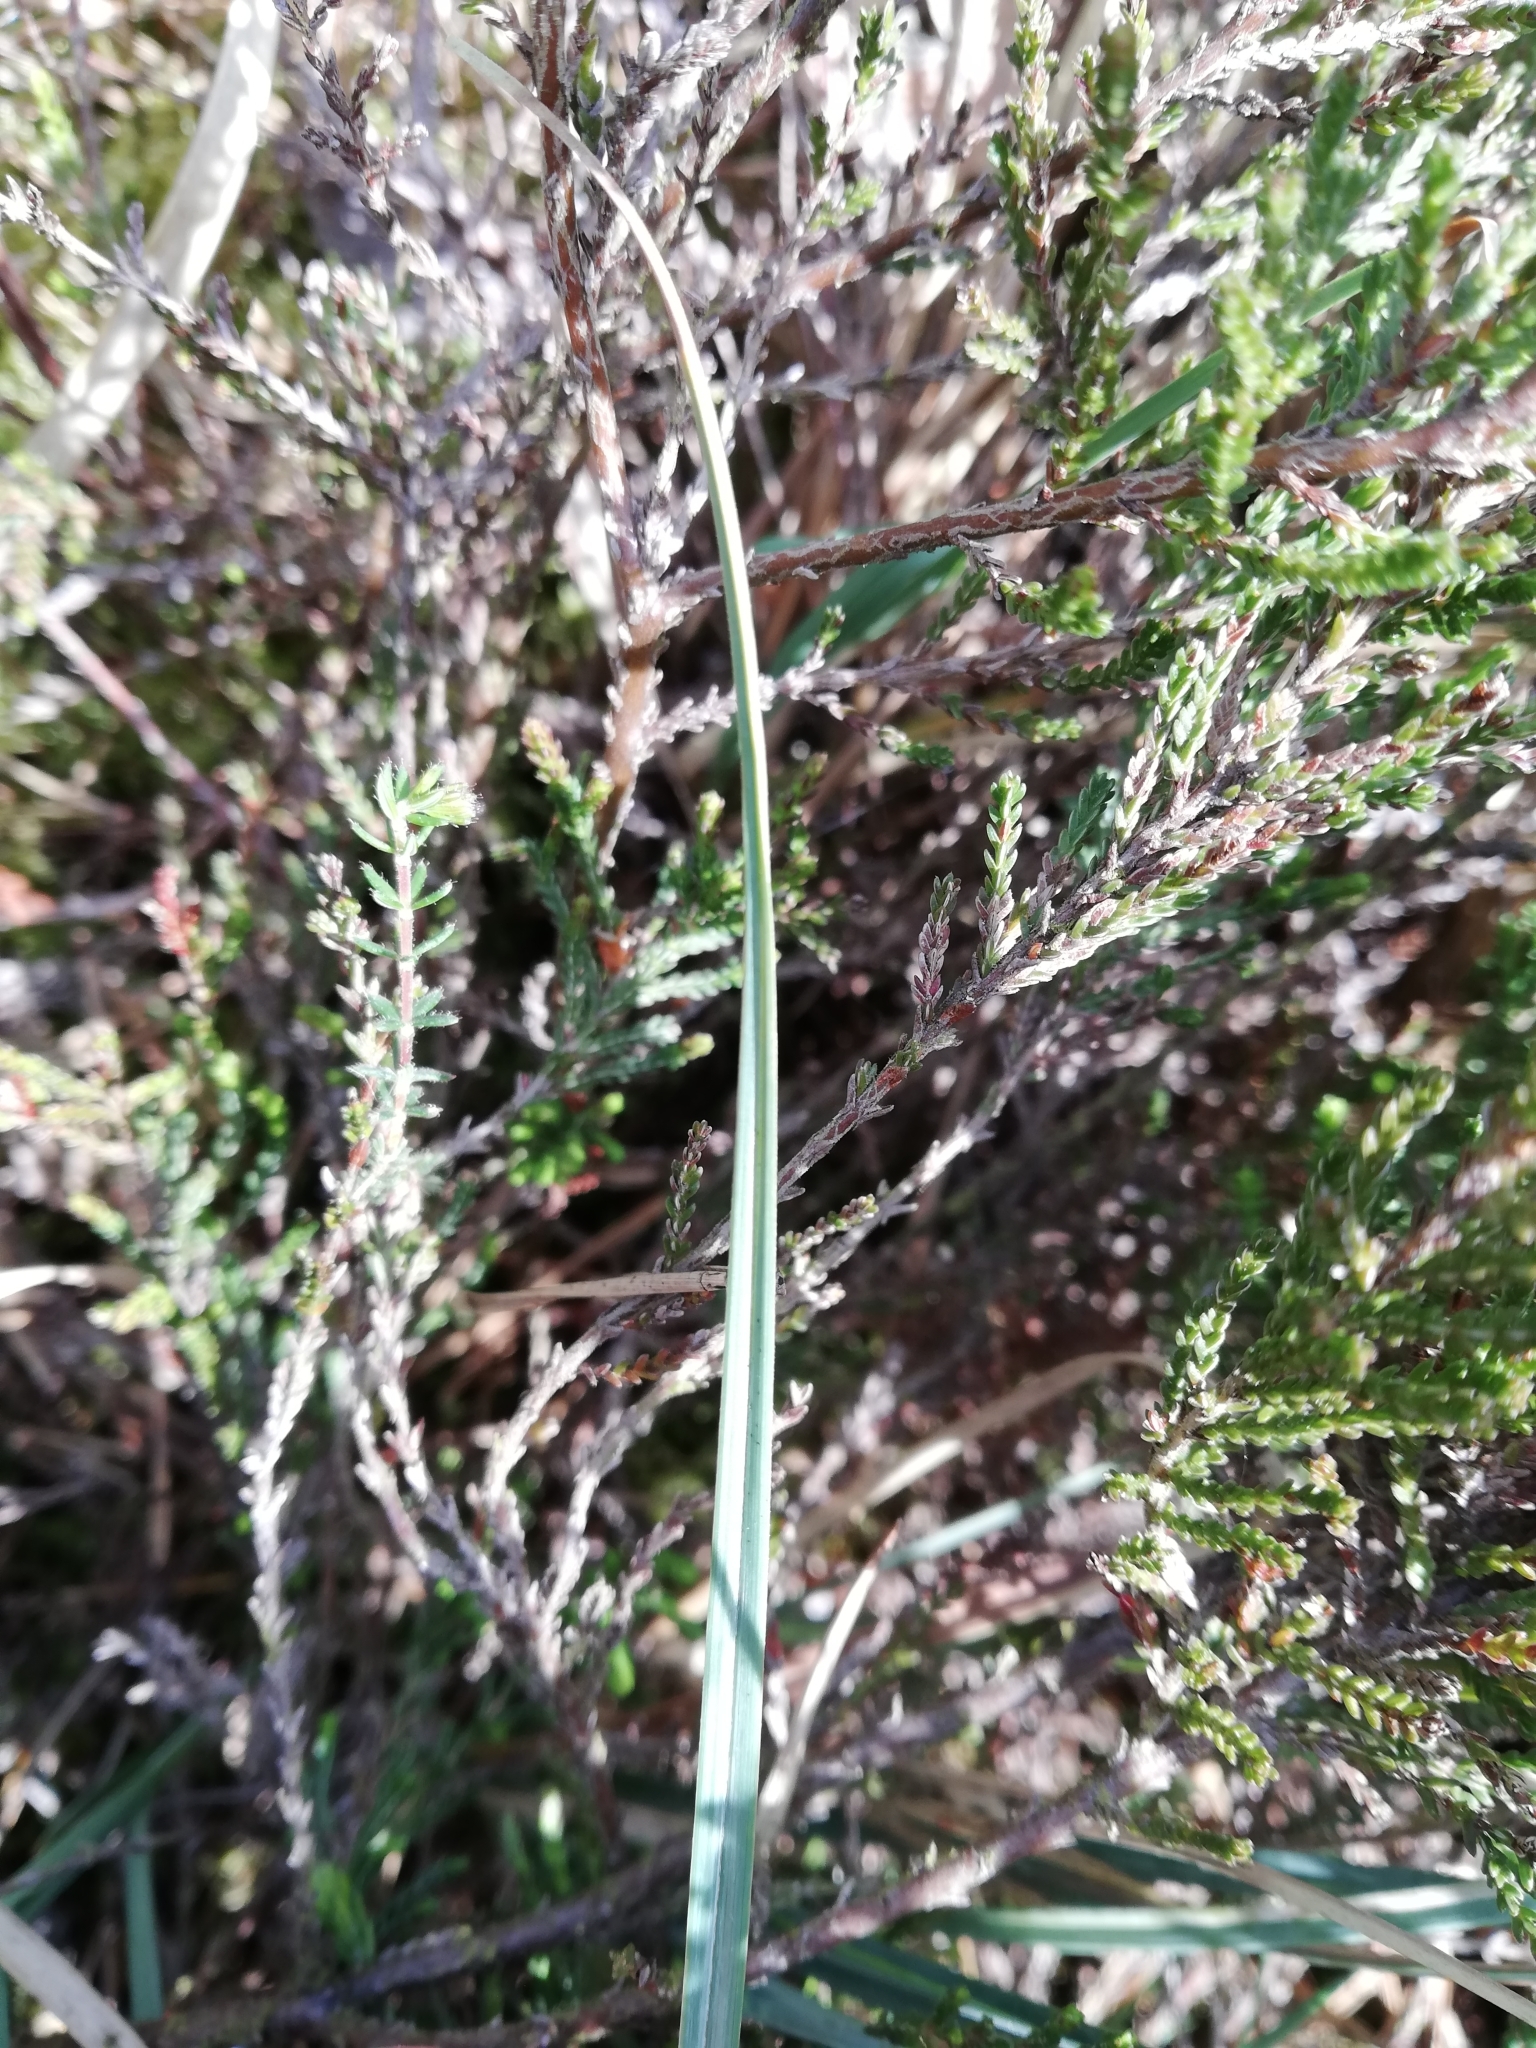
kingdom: Plantae
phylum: Tracheophyta
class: Liliopsida
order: Poales
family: Cyperaceae
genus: Carex
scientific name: Carex panicea
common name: Carnation sedge
